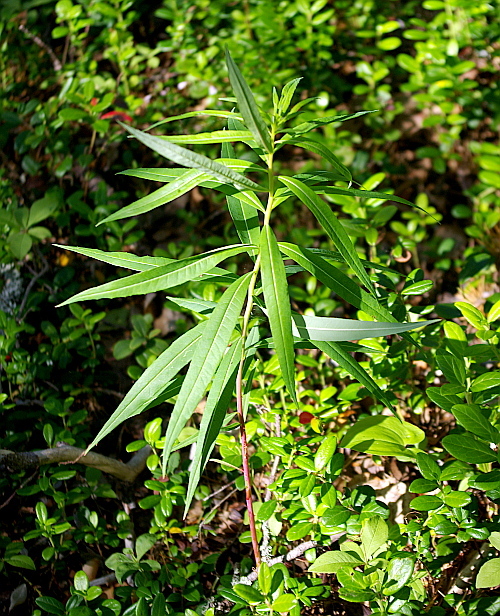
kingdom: Plantae
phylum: Tracheophyta
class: Magnoliopsida
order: Myrtales
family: Onagraceae
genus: Chamaenerion
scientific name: Chamaenerion angustifolium
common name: Fireweed
